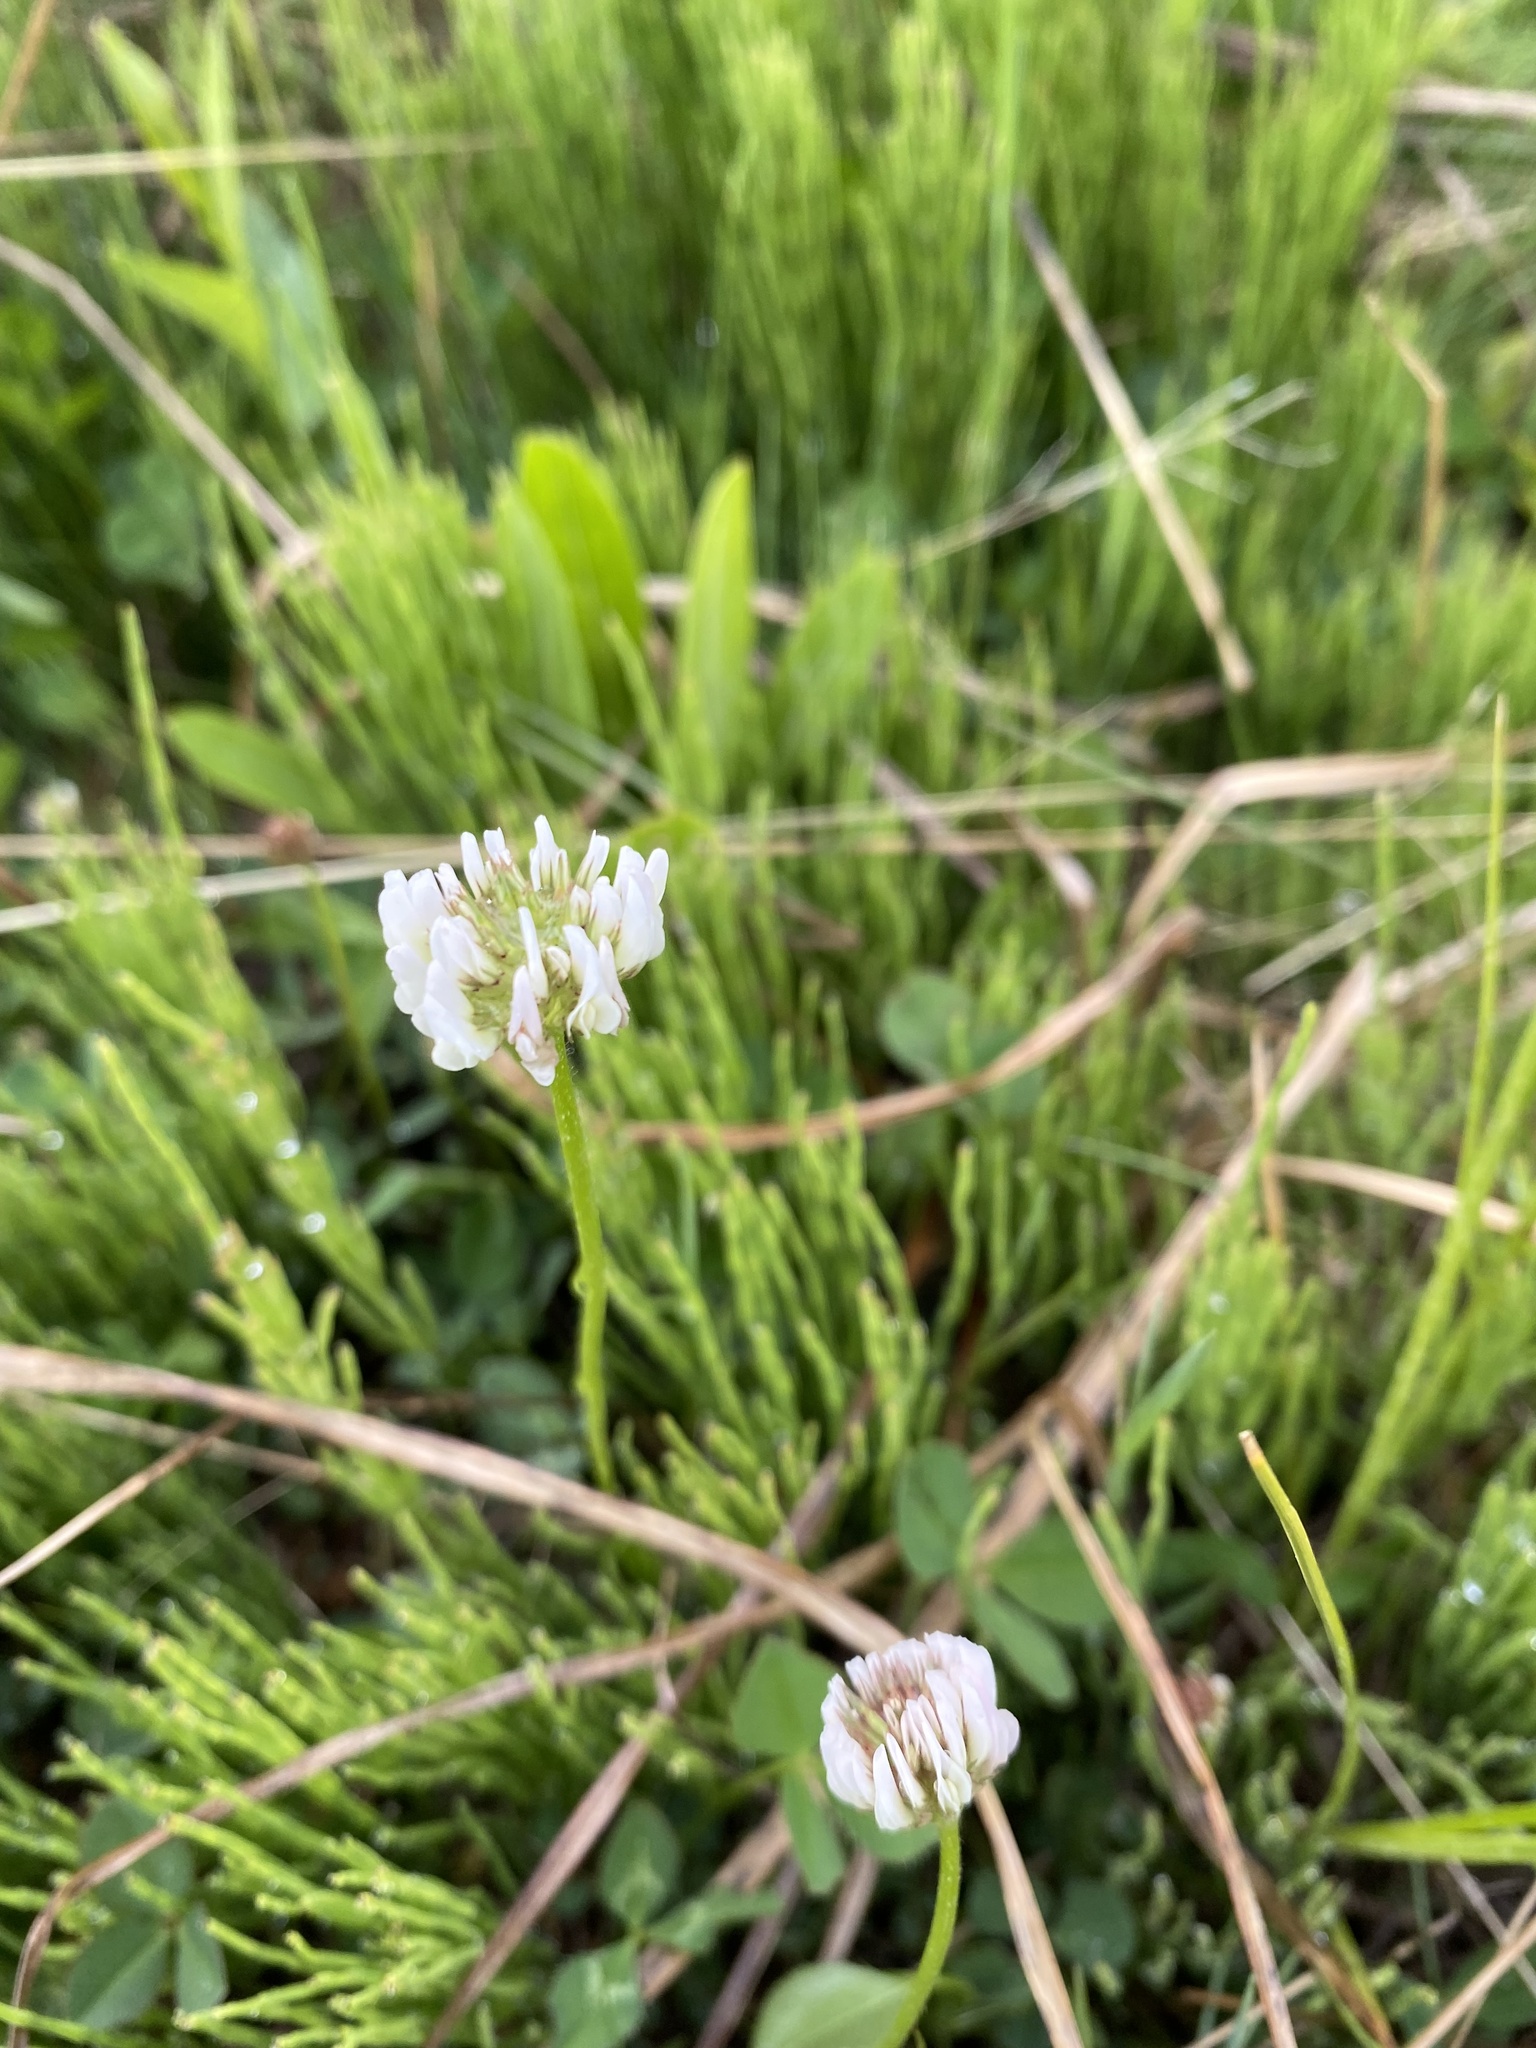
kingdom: Plantae
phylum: Tracheophyta
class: Magnoliopsida
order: Fabales
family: Fabaceae
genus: Trifolium
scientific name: Trifolium repens
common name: White clover
